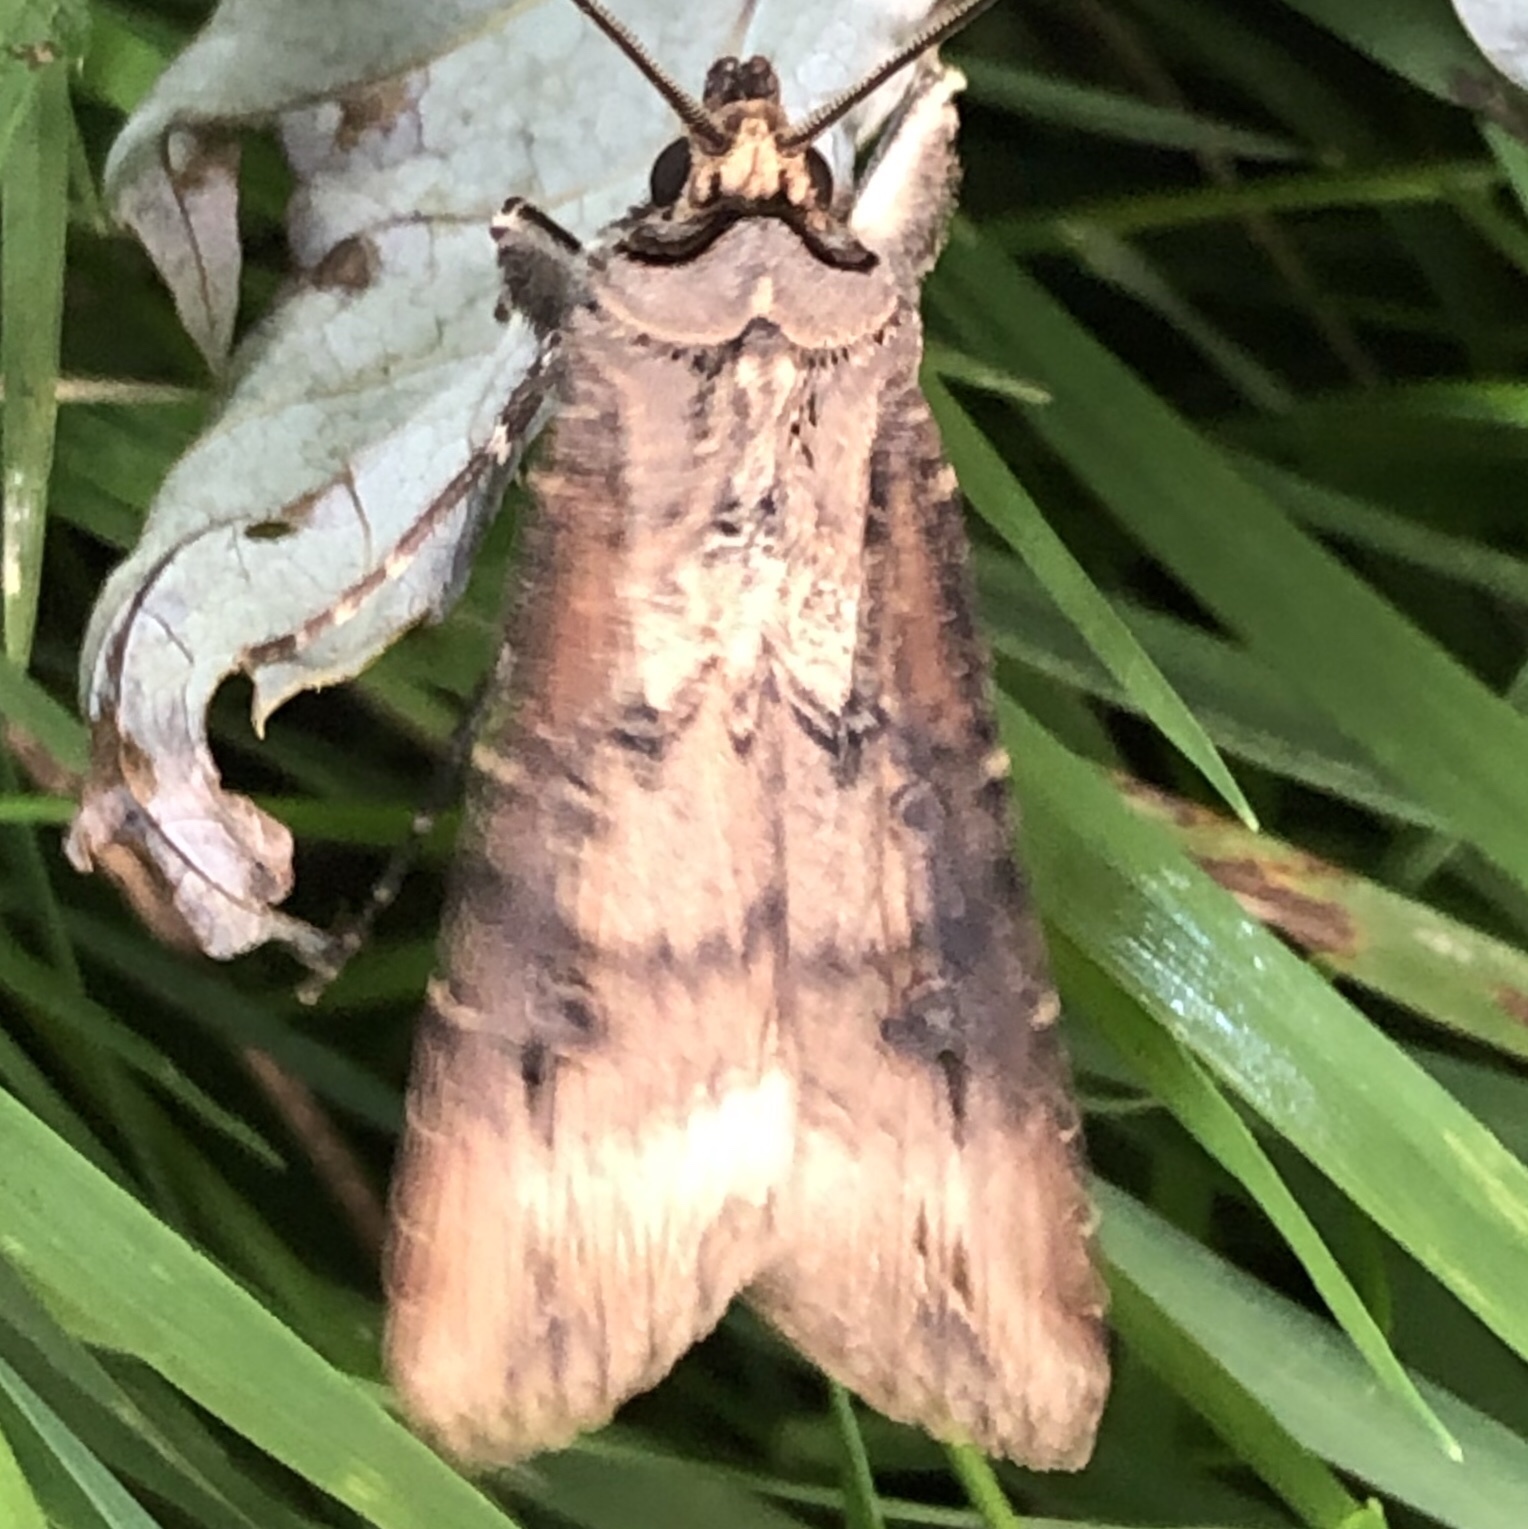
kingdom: Animalia
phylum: Arthropoda
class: Insecta
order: Lepidoptera
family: Noctuidae
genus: Agrotis
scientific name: Agrotis ipsilon
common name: Dark sword-grass
